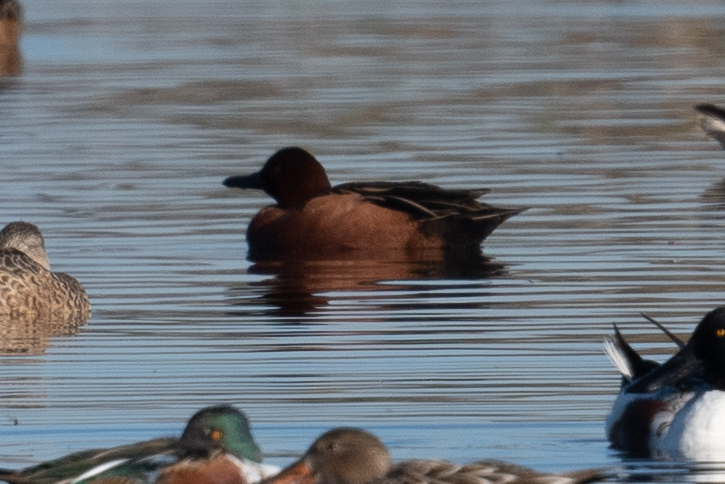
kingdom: Animalia
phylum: Chordata
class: Aves
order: Anseriformes
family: Anatidae
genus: Spatula
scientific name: Spatula cyanoptera
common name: Cinnamon teal
